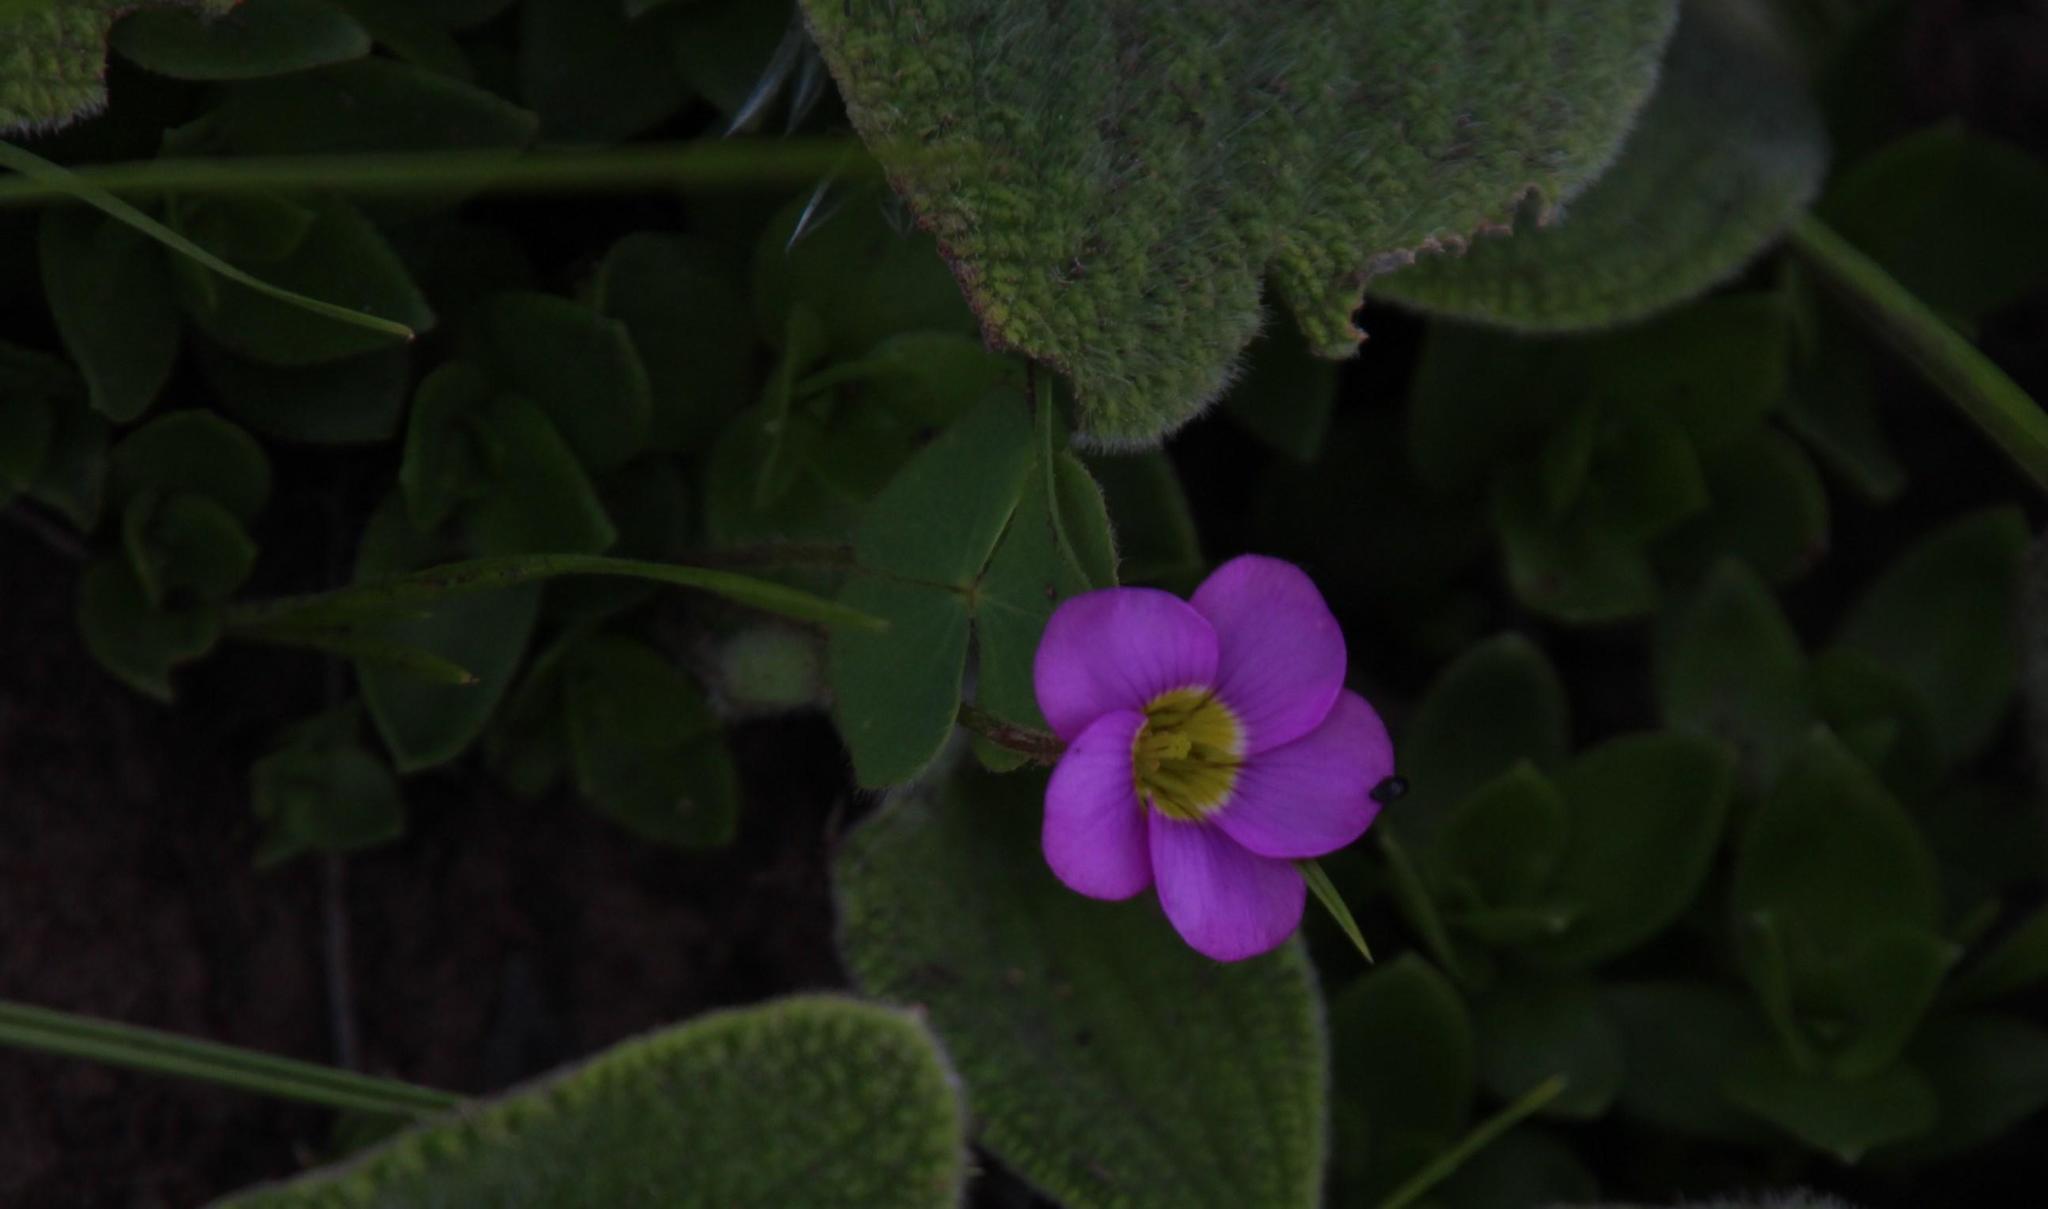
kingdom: Plantae
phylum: Tracheophyta
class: Magnoliopsida
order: Oxalidales
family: Oxalidaceae
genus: Oxalis
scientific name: Oxalis obliquifolia
